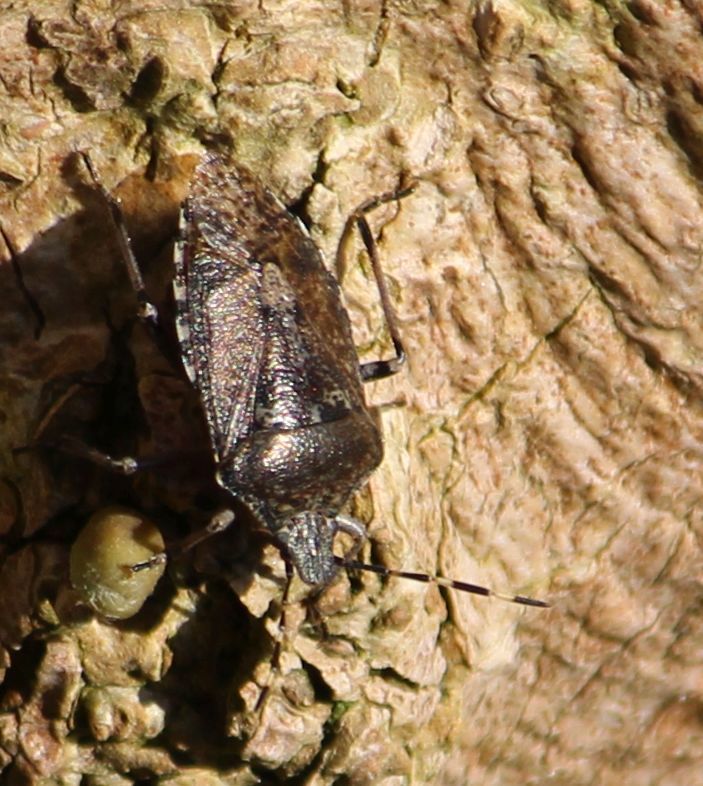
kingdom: Animalia
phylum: Arthropoda
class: Insecta
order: Hemiptera
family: Pentatomidae
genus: Rhaphigaster
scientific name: Rhaphigaster nebulosa
